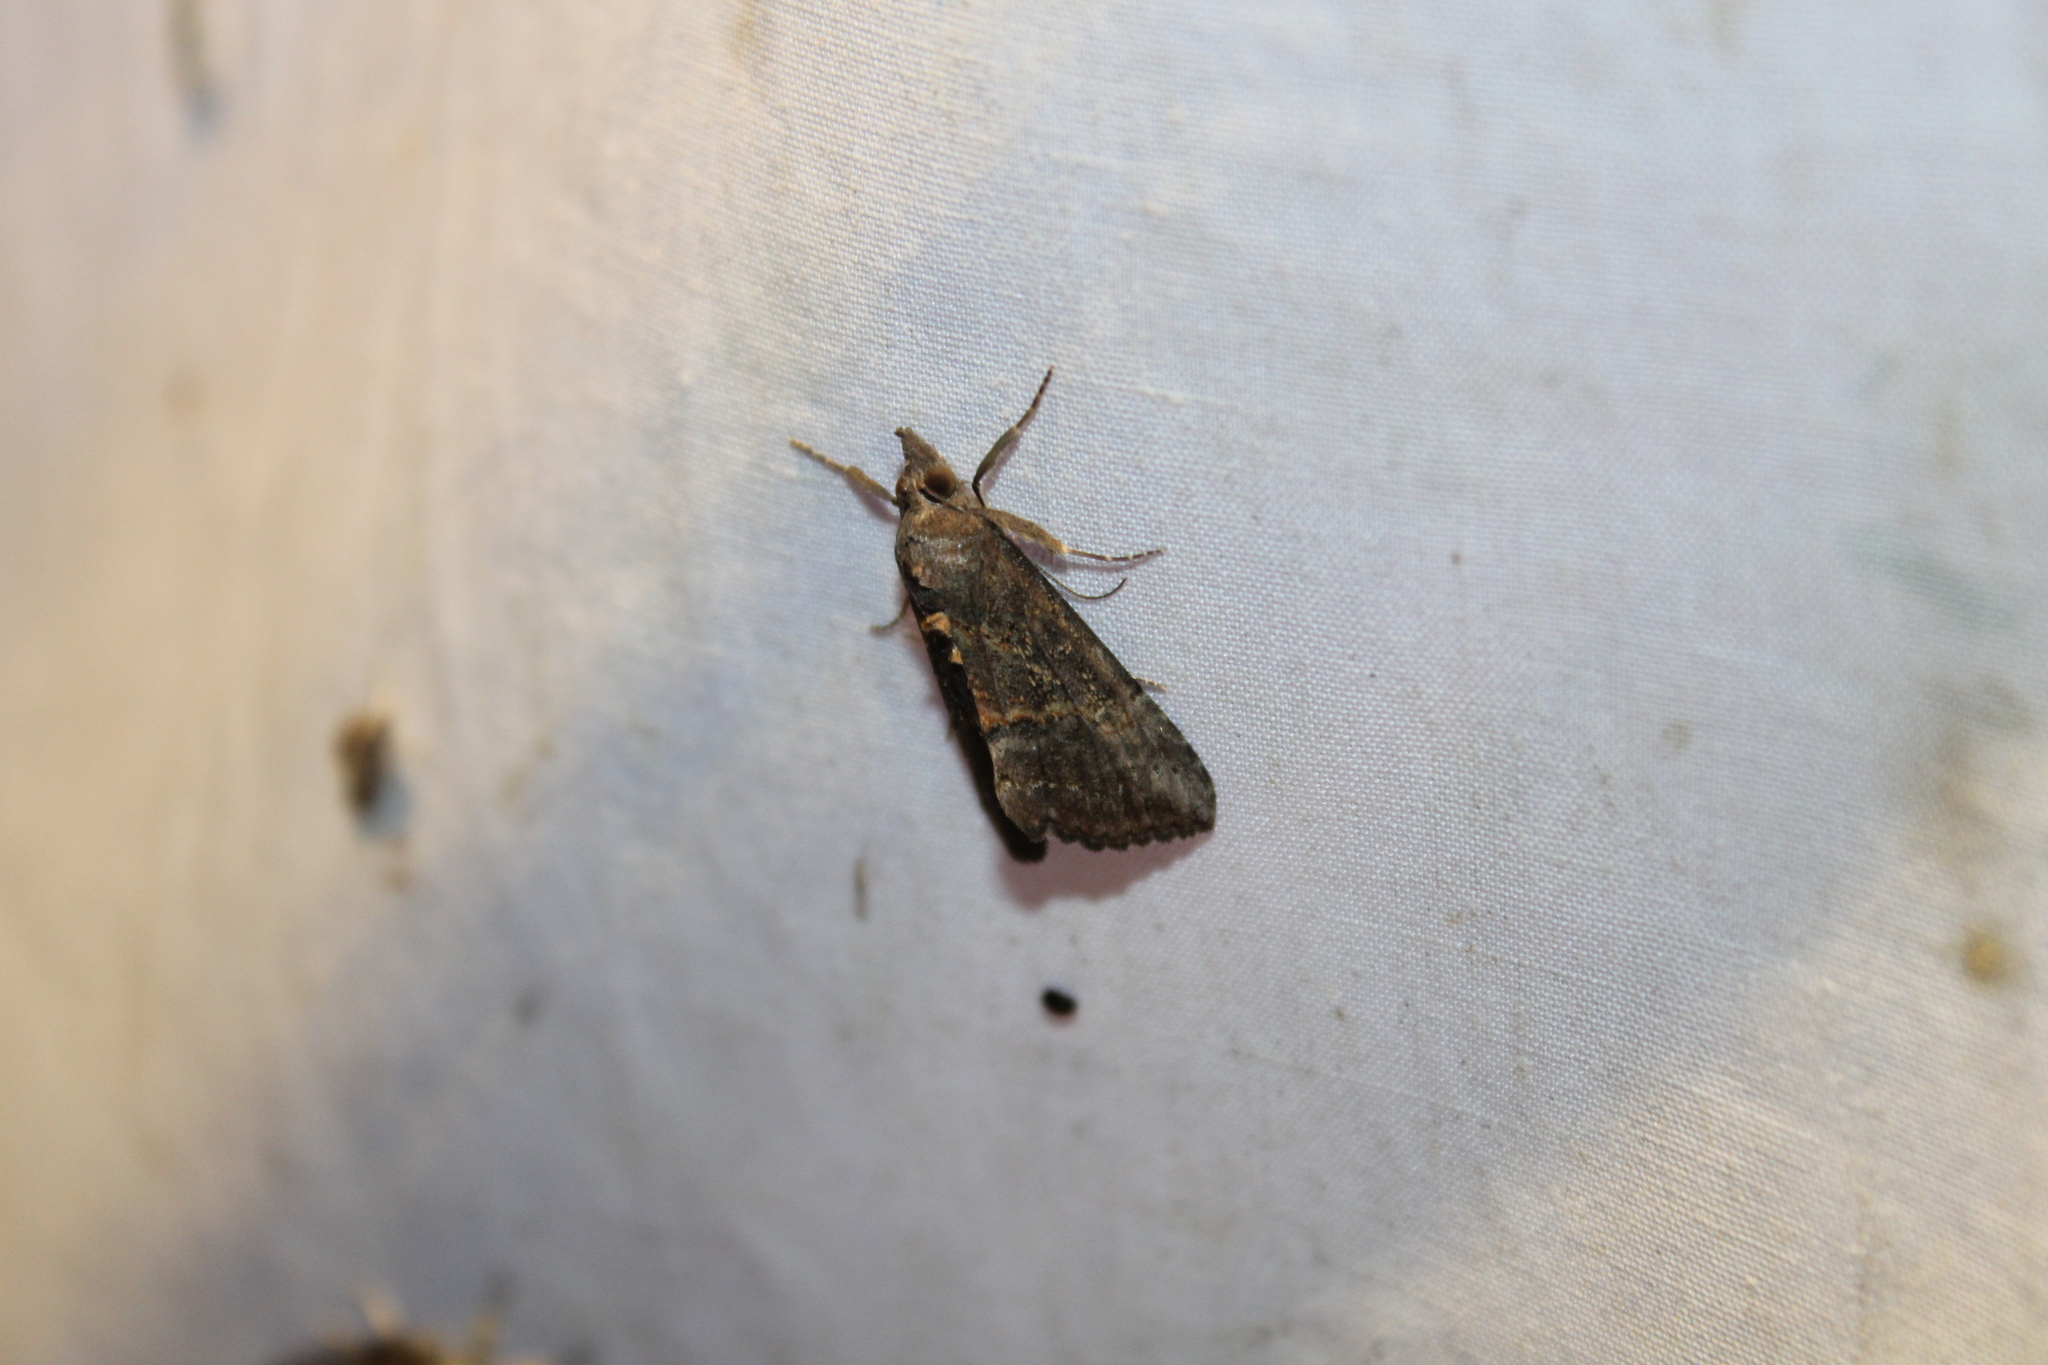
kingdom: Animalia
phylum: Arthropoda
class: Insecta
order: Lepidoptera
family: Erebidae
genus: Hypena
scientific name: Hypena scabra
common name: Green cloverworm
